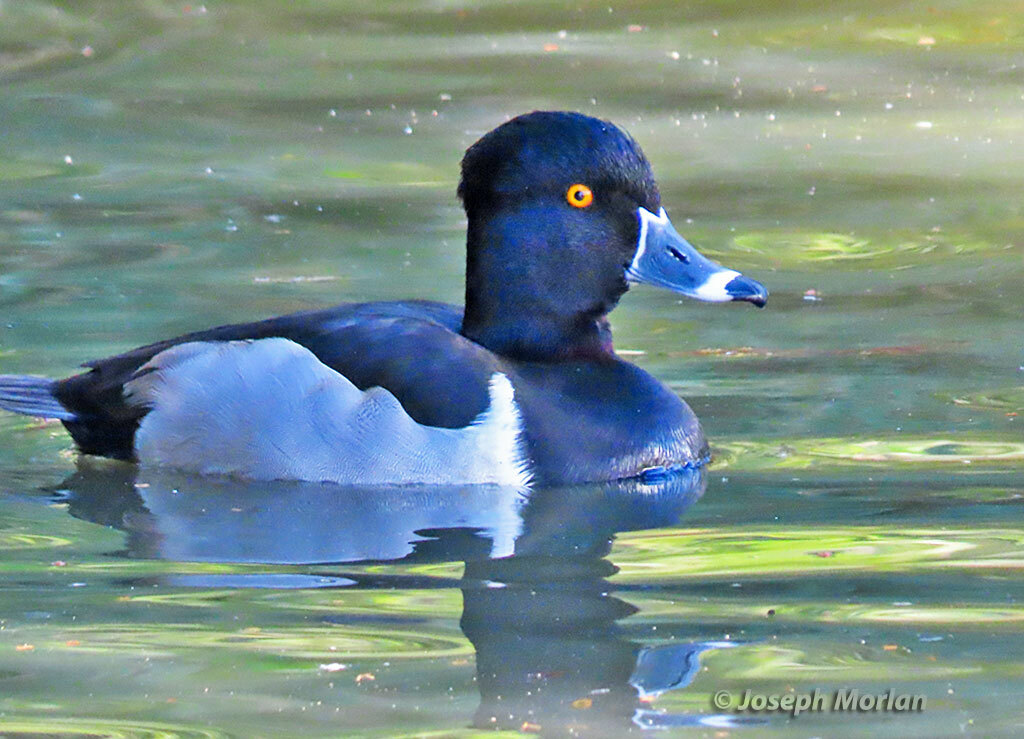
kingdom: Animalia
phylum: Chordata
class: Aves
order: Anseriformes
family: Anatidae
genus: Aythya
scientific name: Aythya collaris
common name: Ring-necked duck
